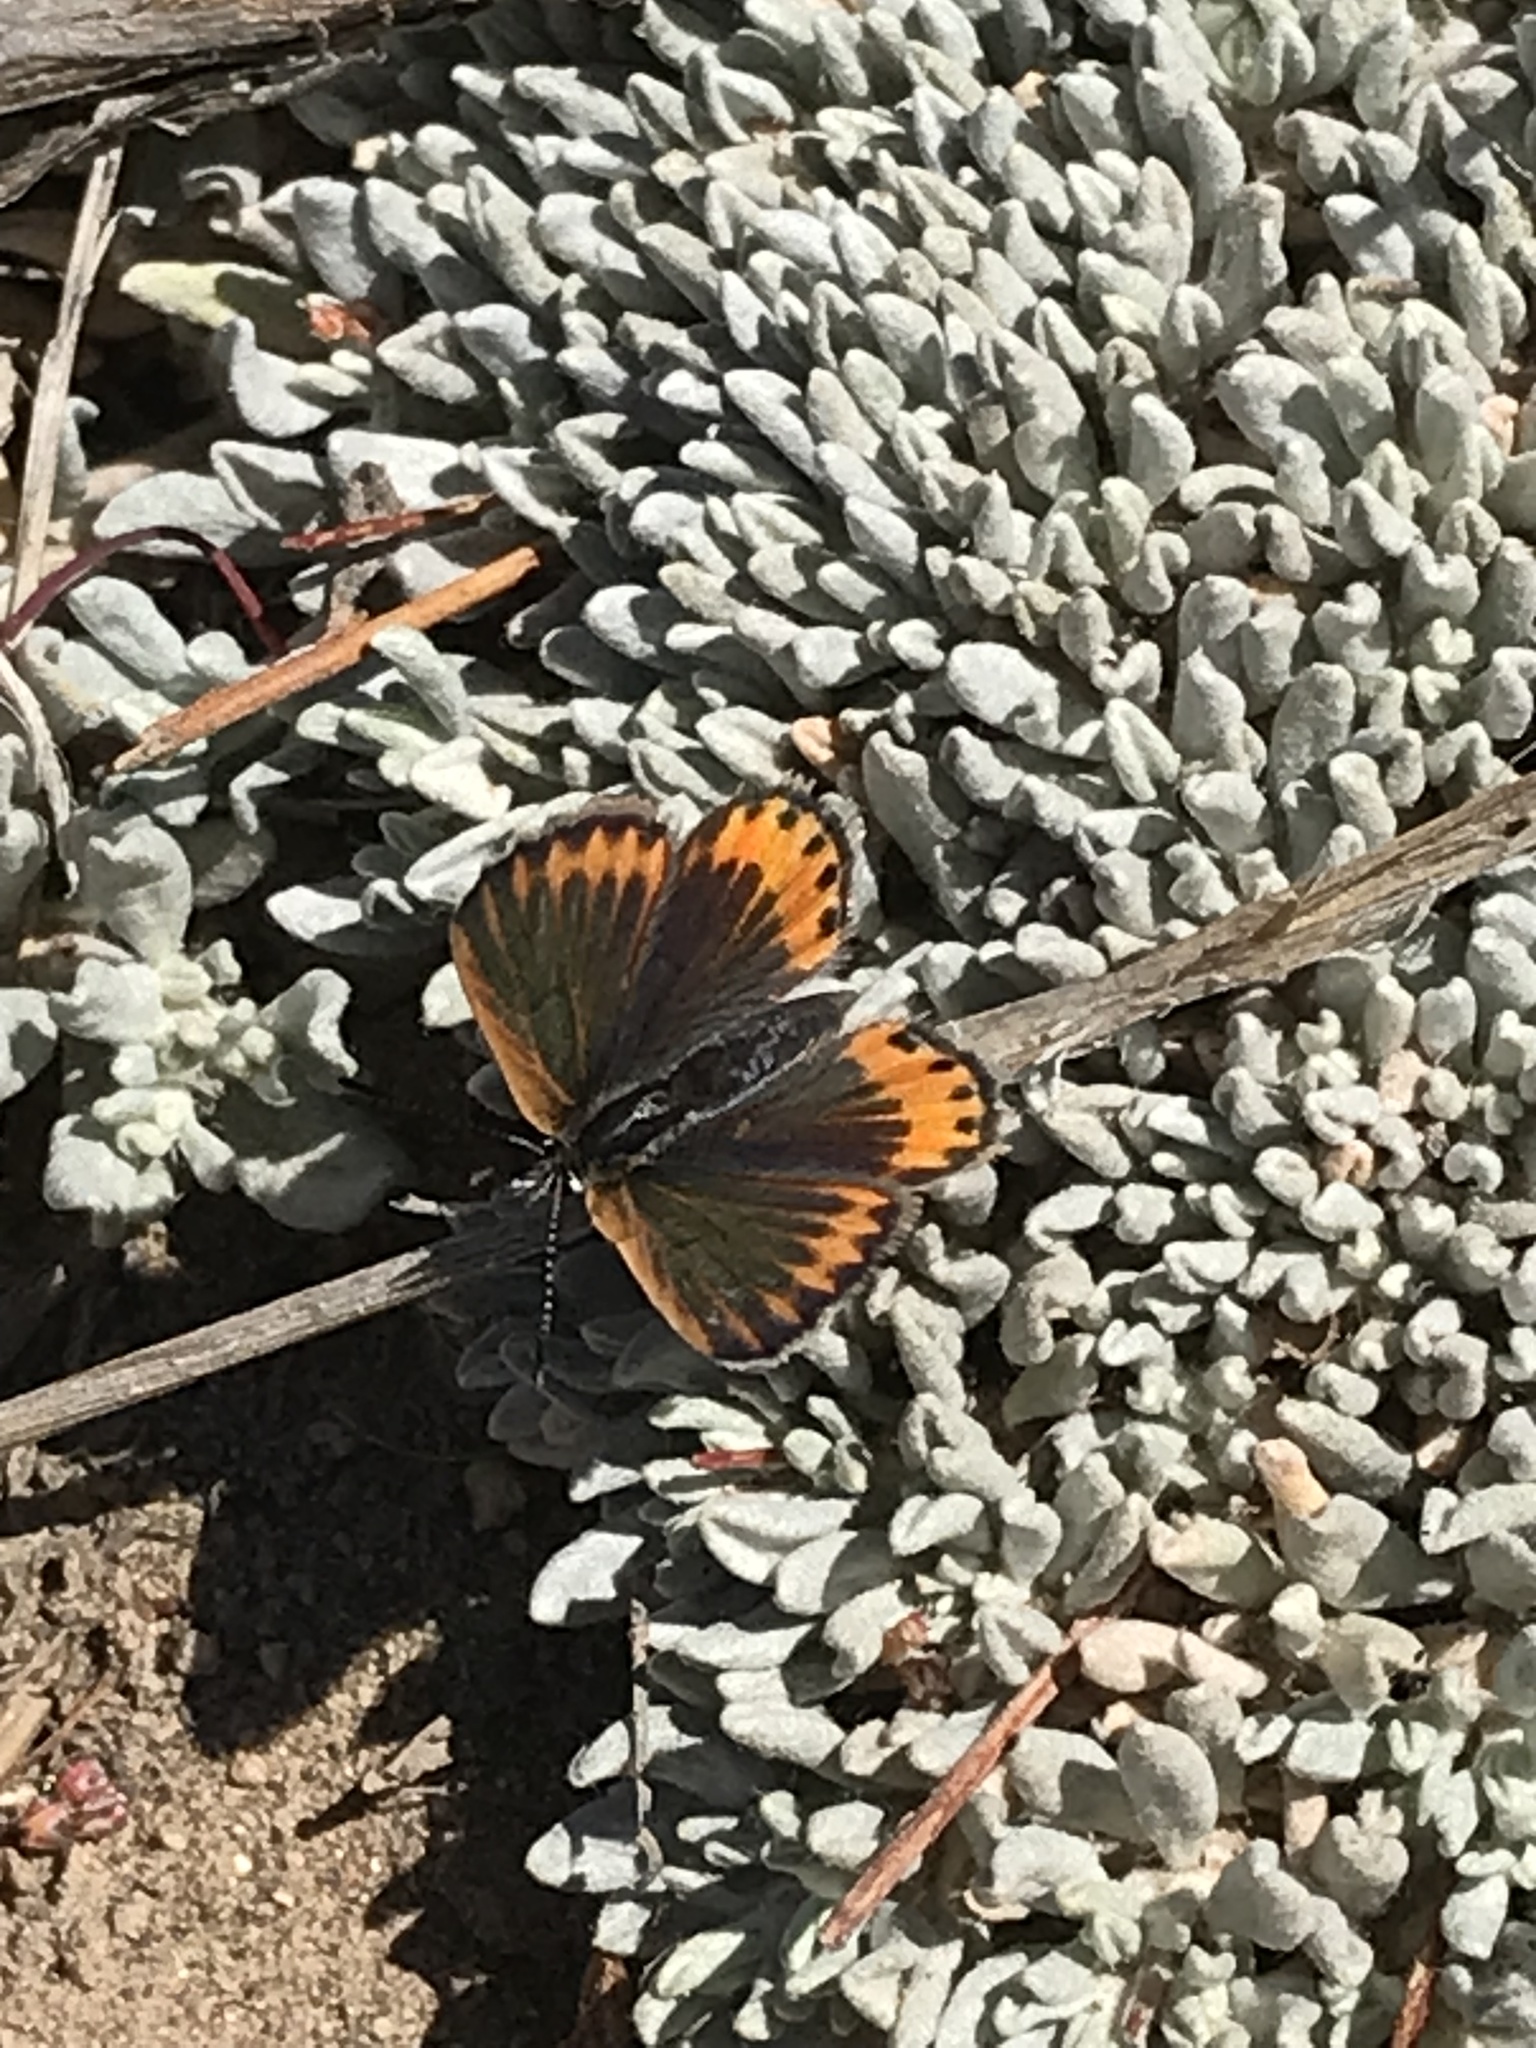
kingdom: Animalia
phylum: Arthropoda
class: Insecta
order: Lepidoptera
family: Lycaenidae
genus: Icaricia
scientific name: Icaricia neurona
